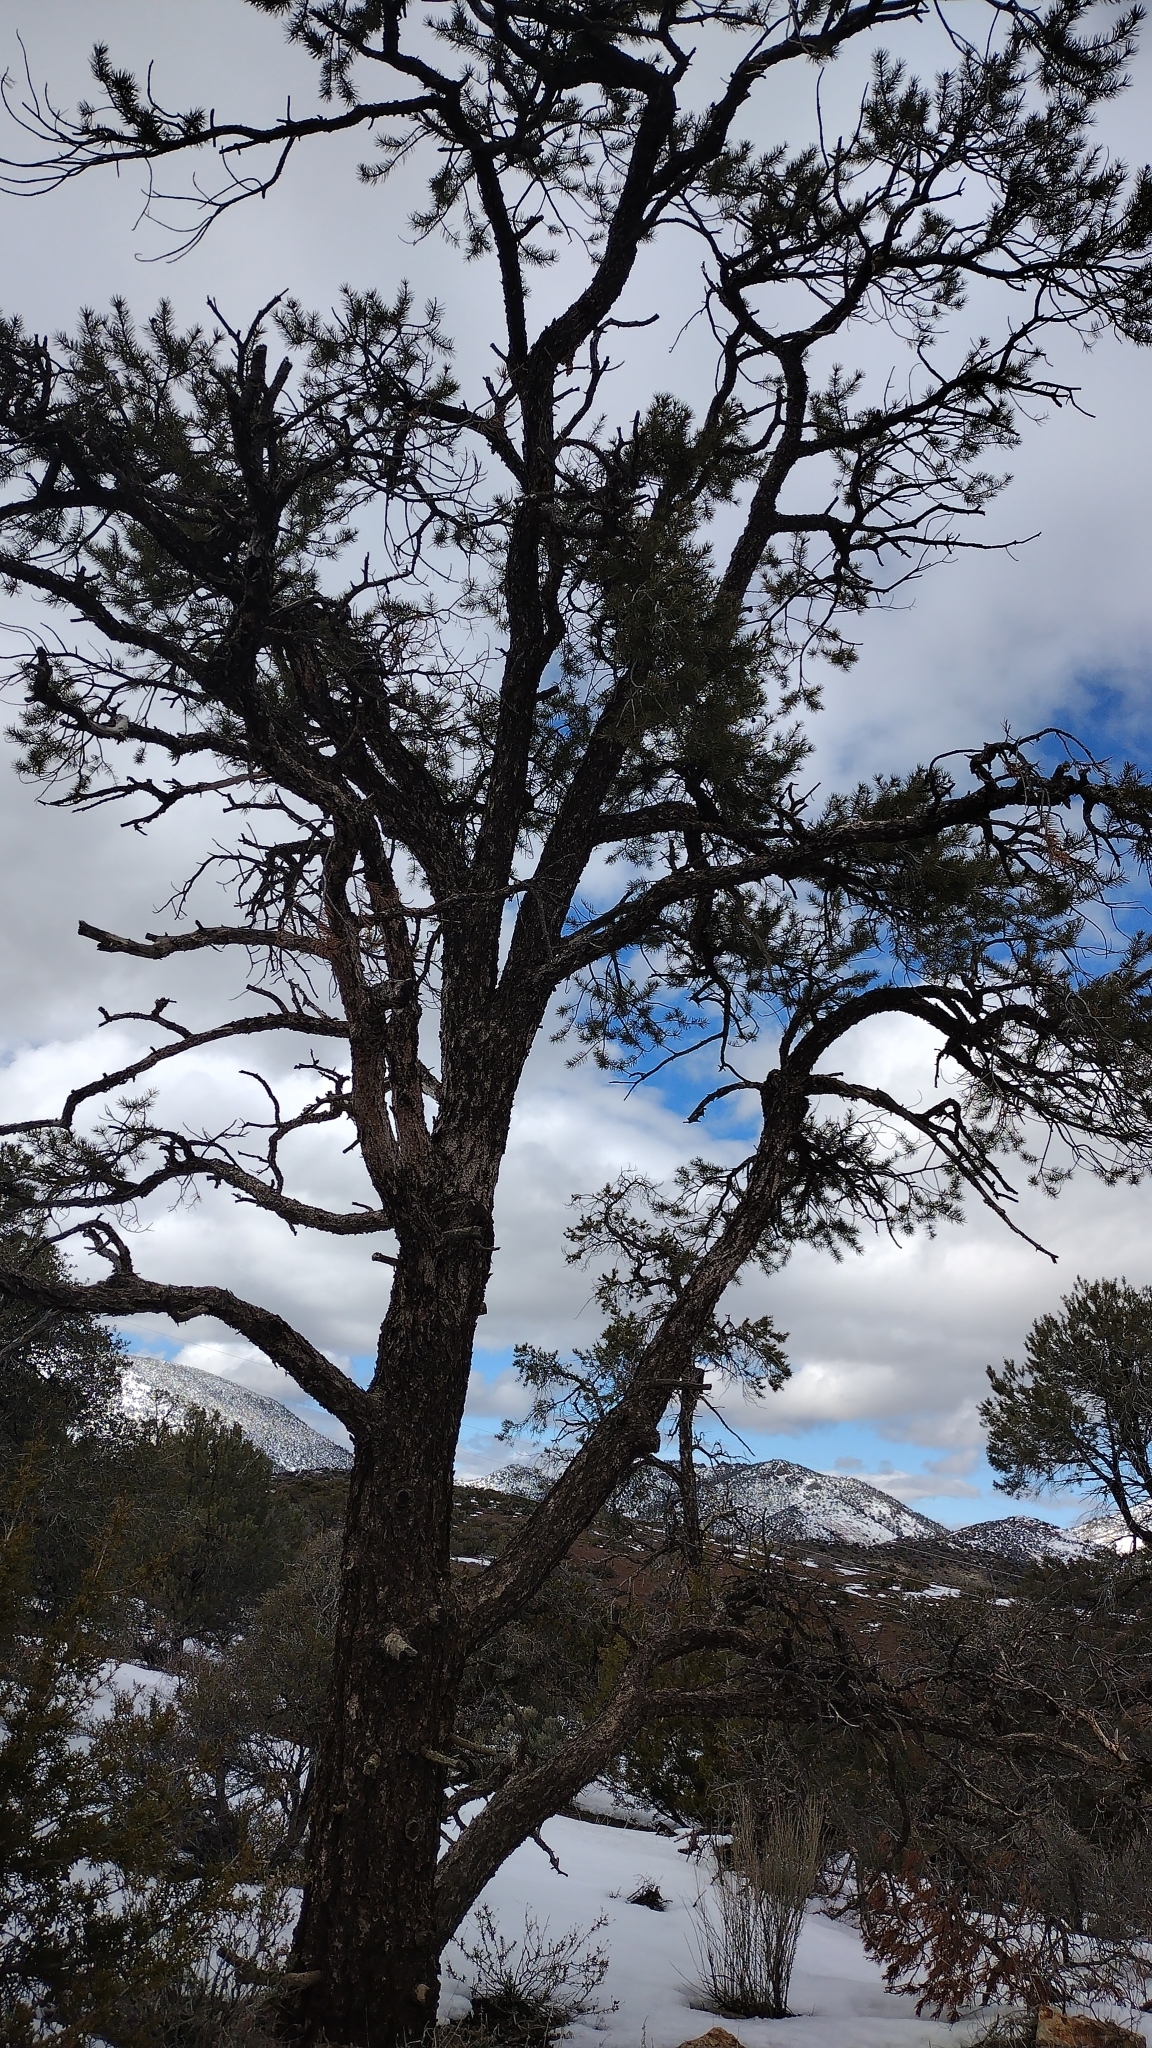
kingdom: Plantae
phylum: Tracheophyta
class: Pinopsida
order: Pinales
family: Pinaceae
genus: Pinus
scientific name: Pinus monophylla
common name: One-leaved nut pine
